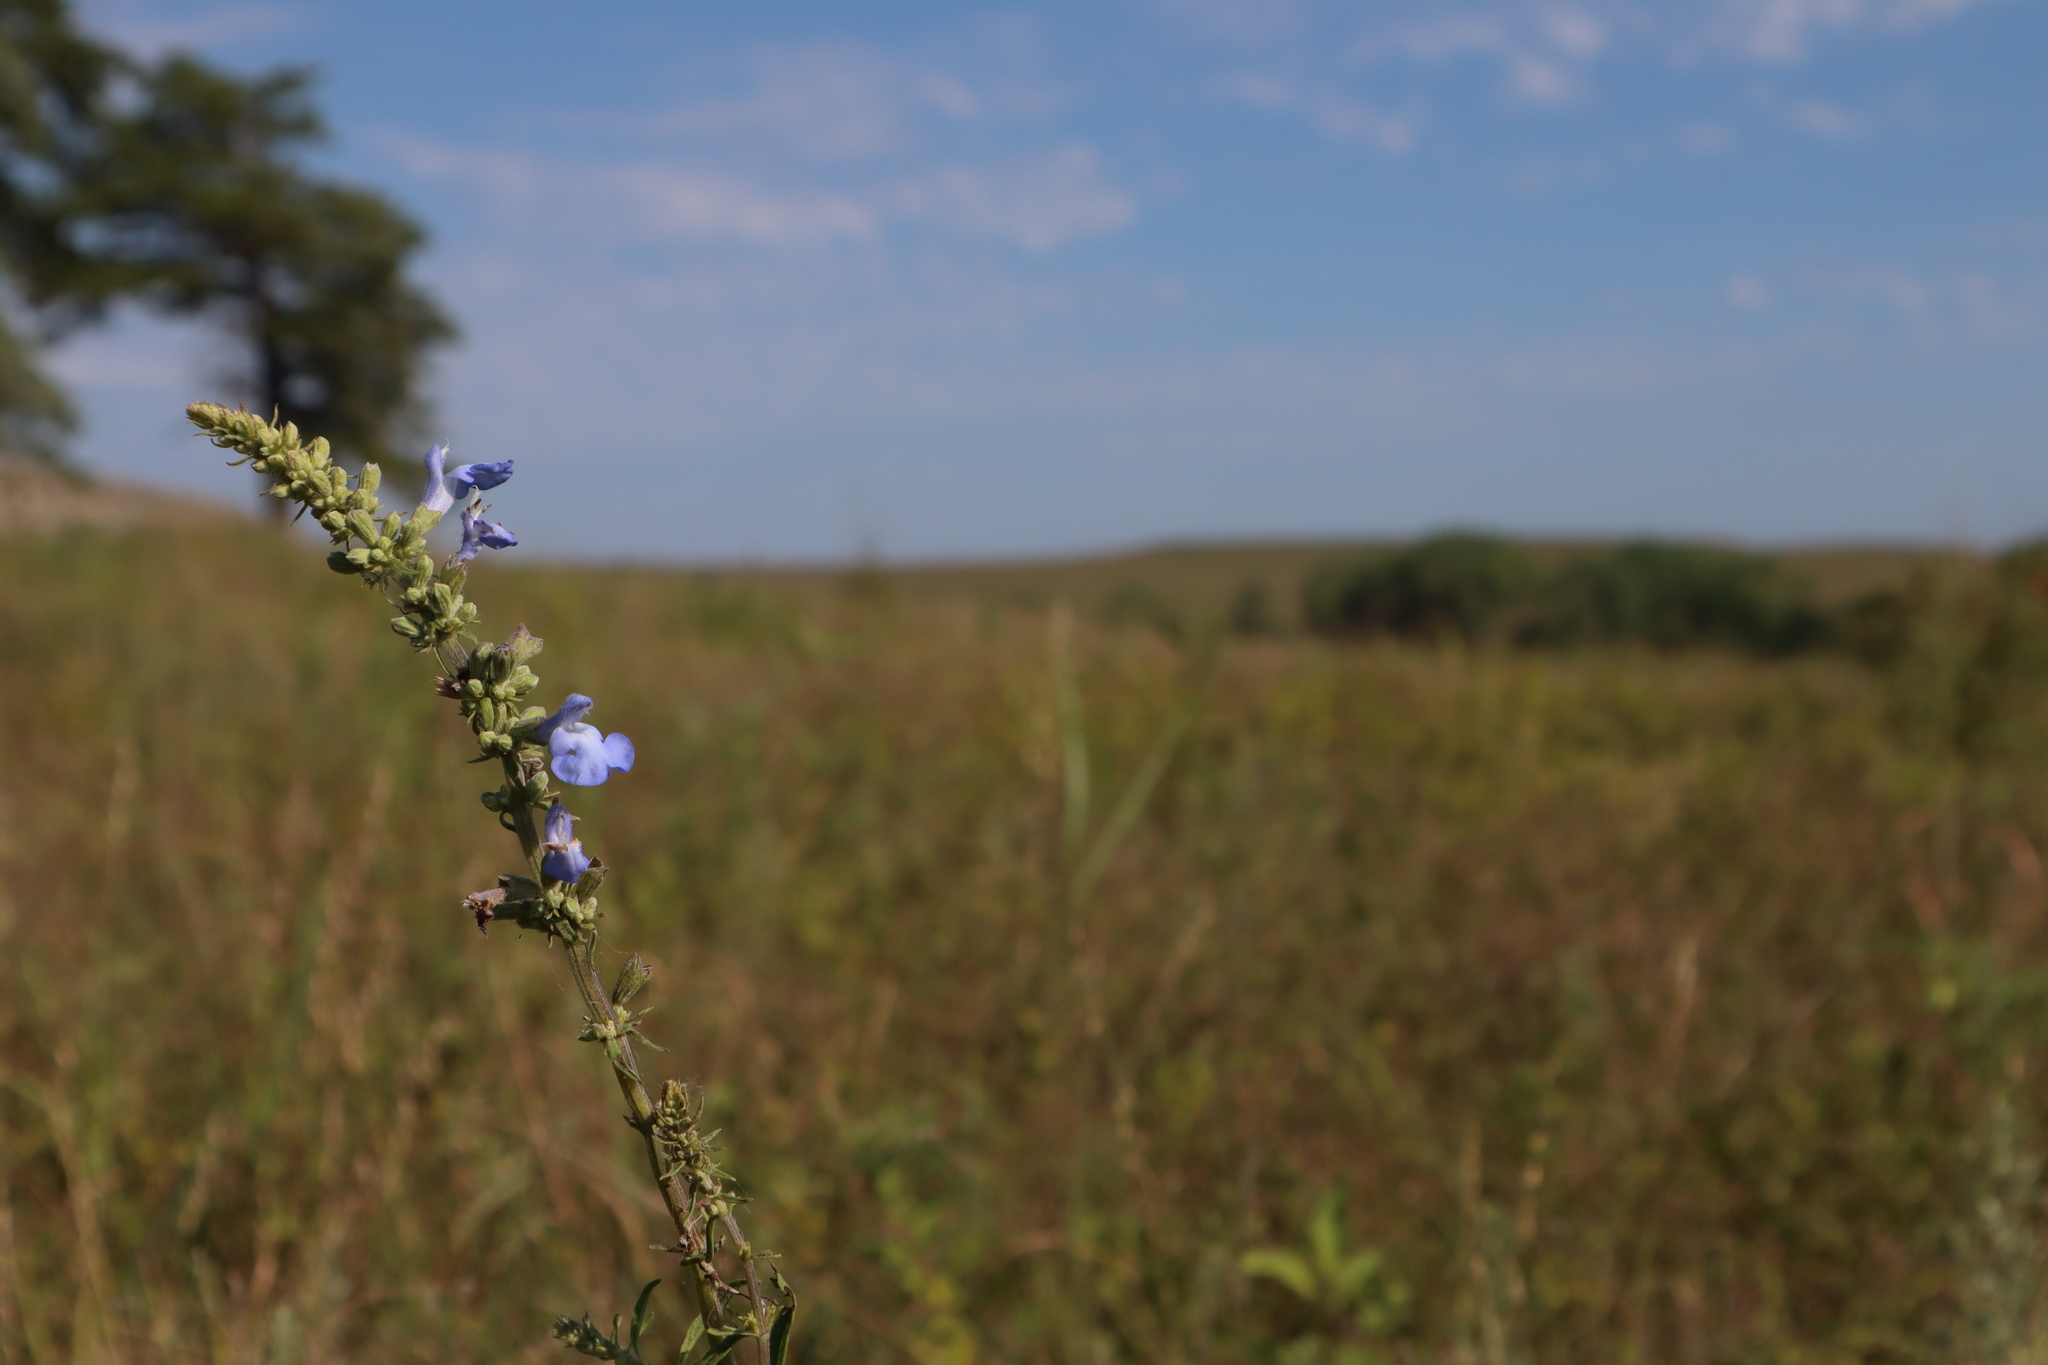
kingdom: Plantae
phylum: Tracheophyta
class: Magnoliopsida
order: Lamiales
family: Lamiaceae
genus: Salvia
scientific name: Salvia azurea
